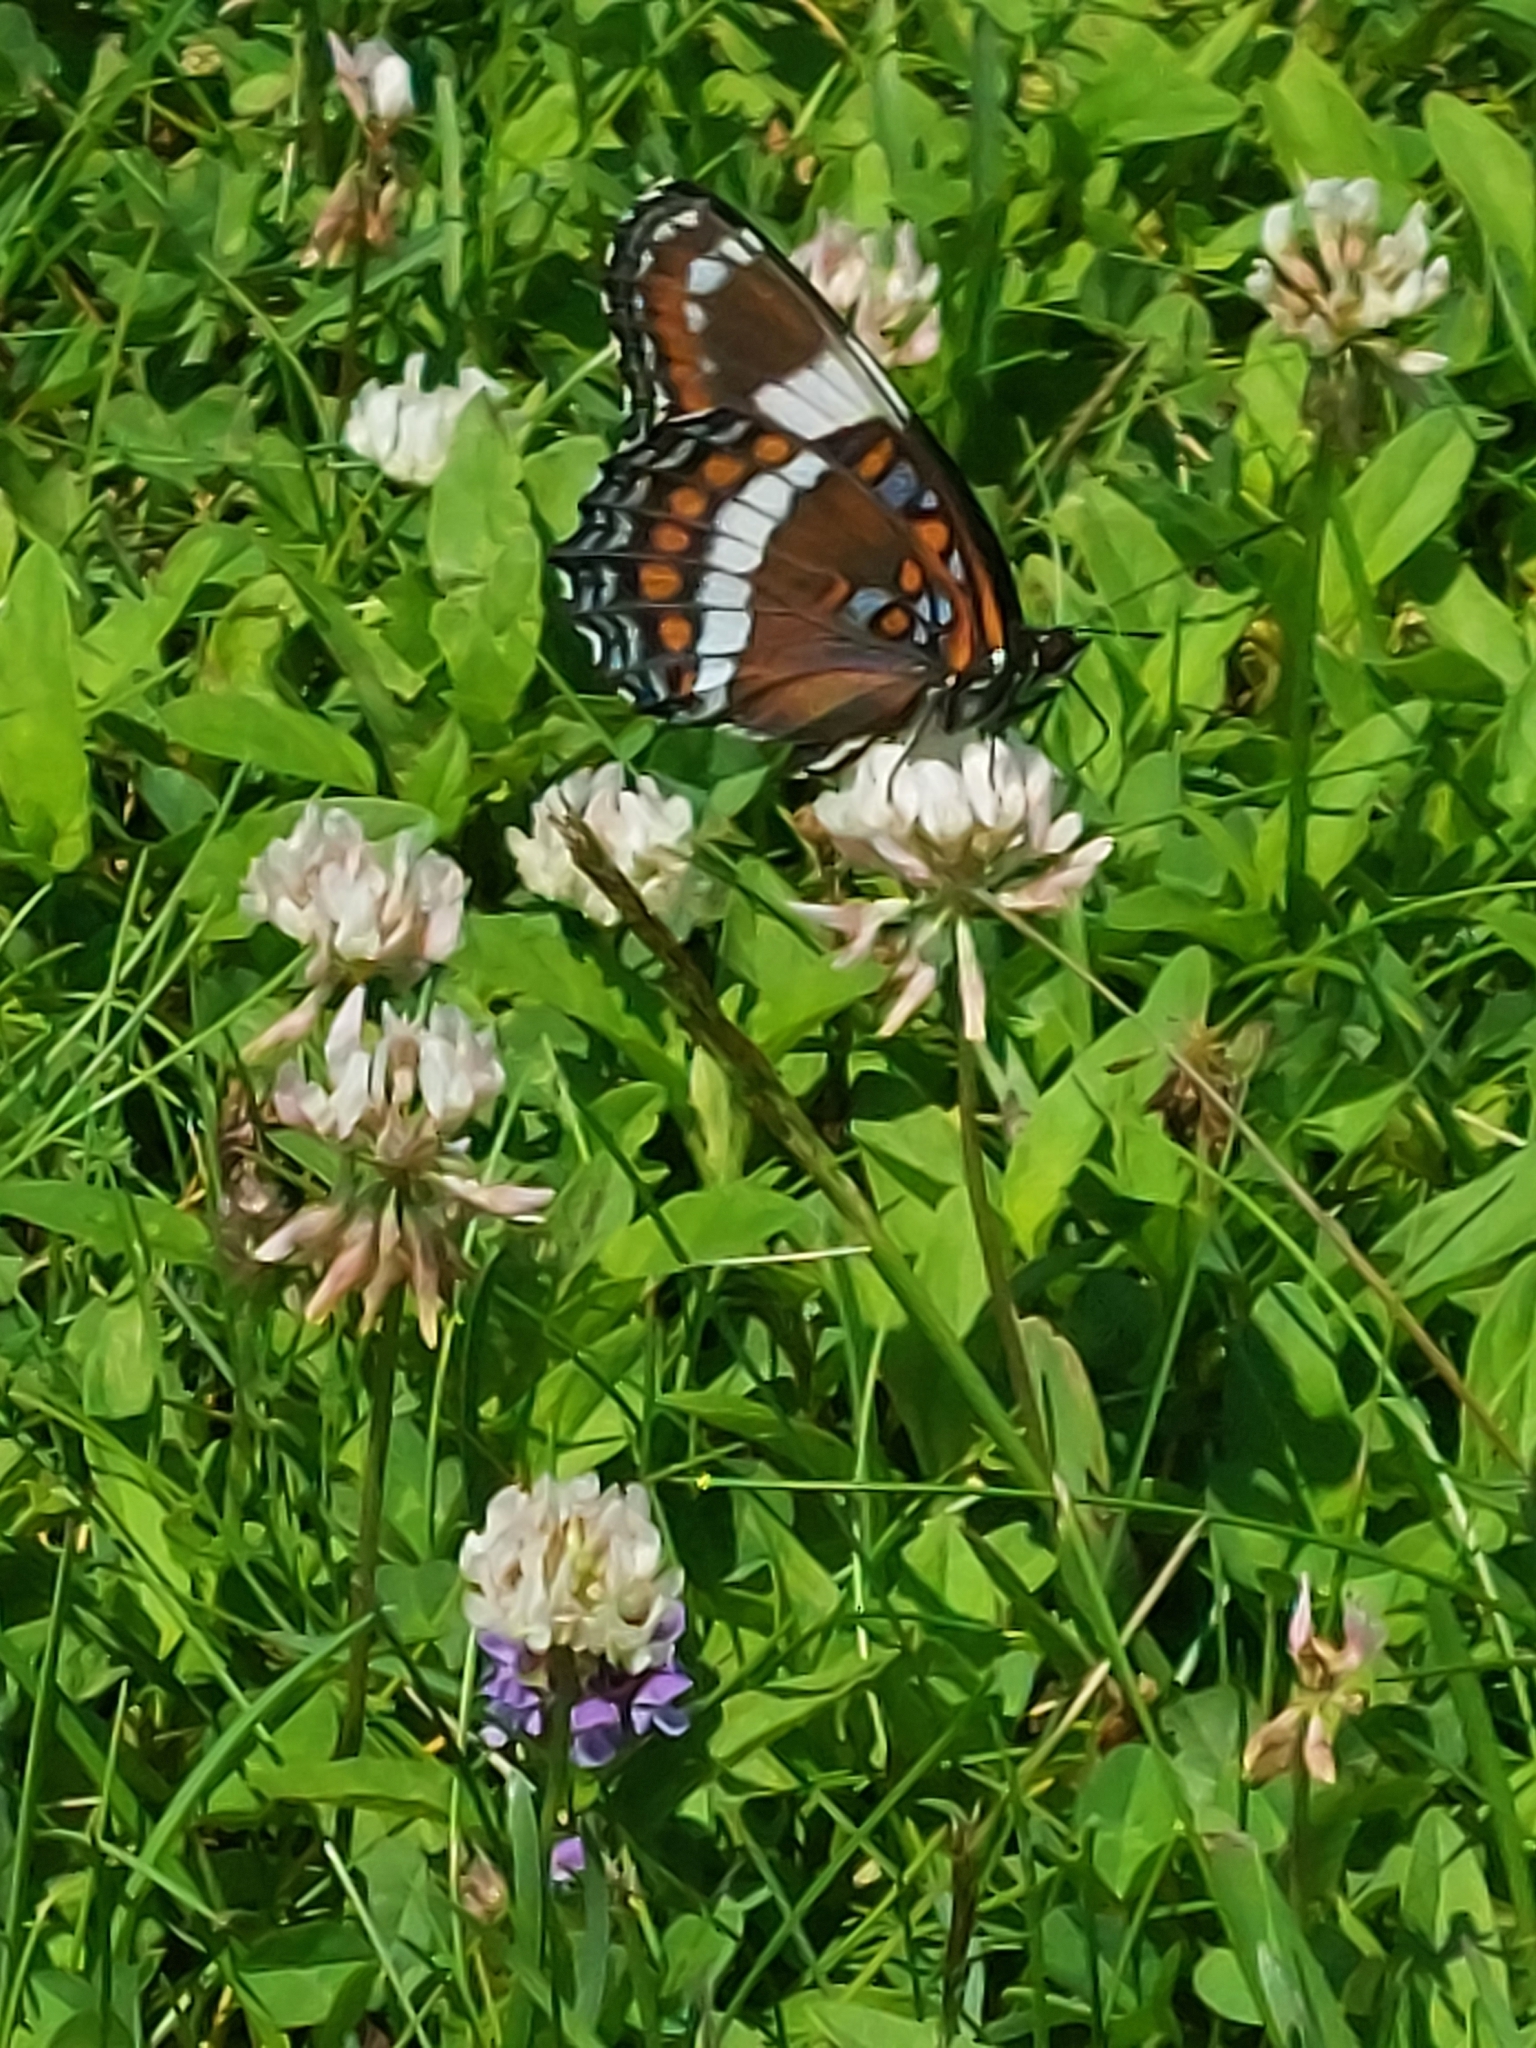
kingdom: Animalia
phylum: Arthropoda
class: Insecta
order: Lepidoptera
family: Nymphalidae
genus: Limenitis
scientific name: Limenitis arthemis
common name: Red-spotted admiral
